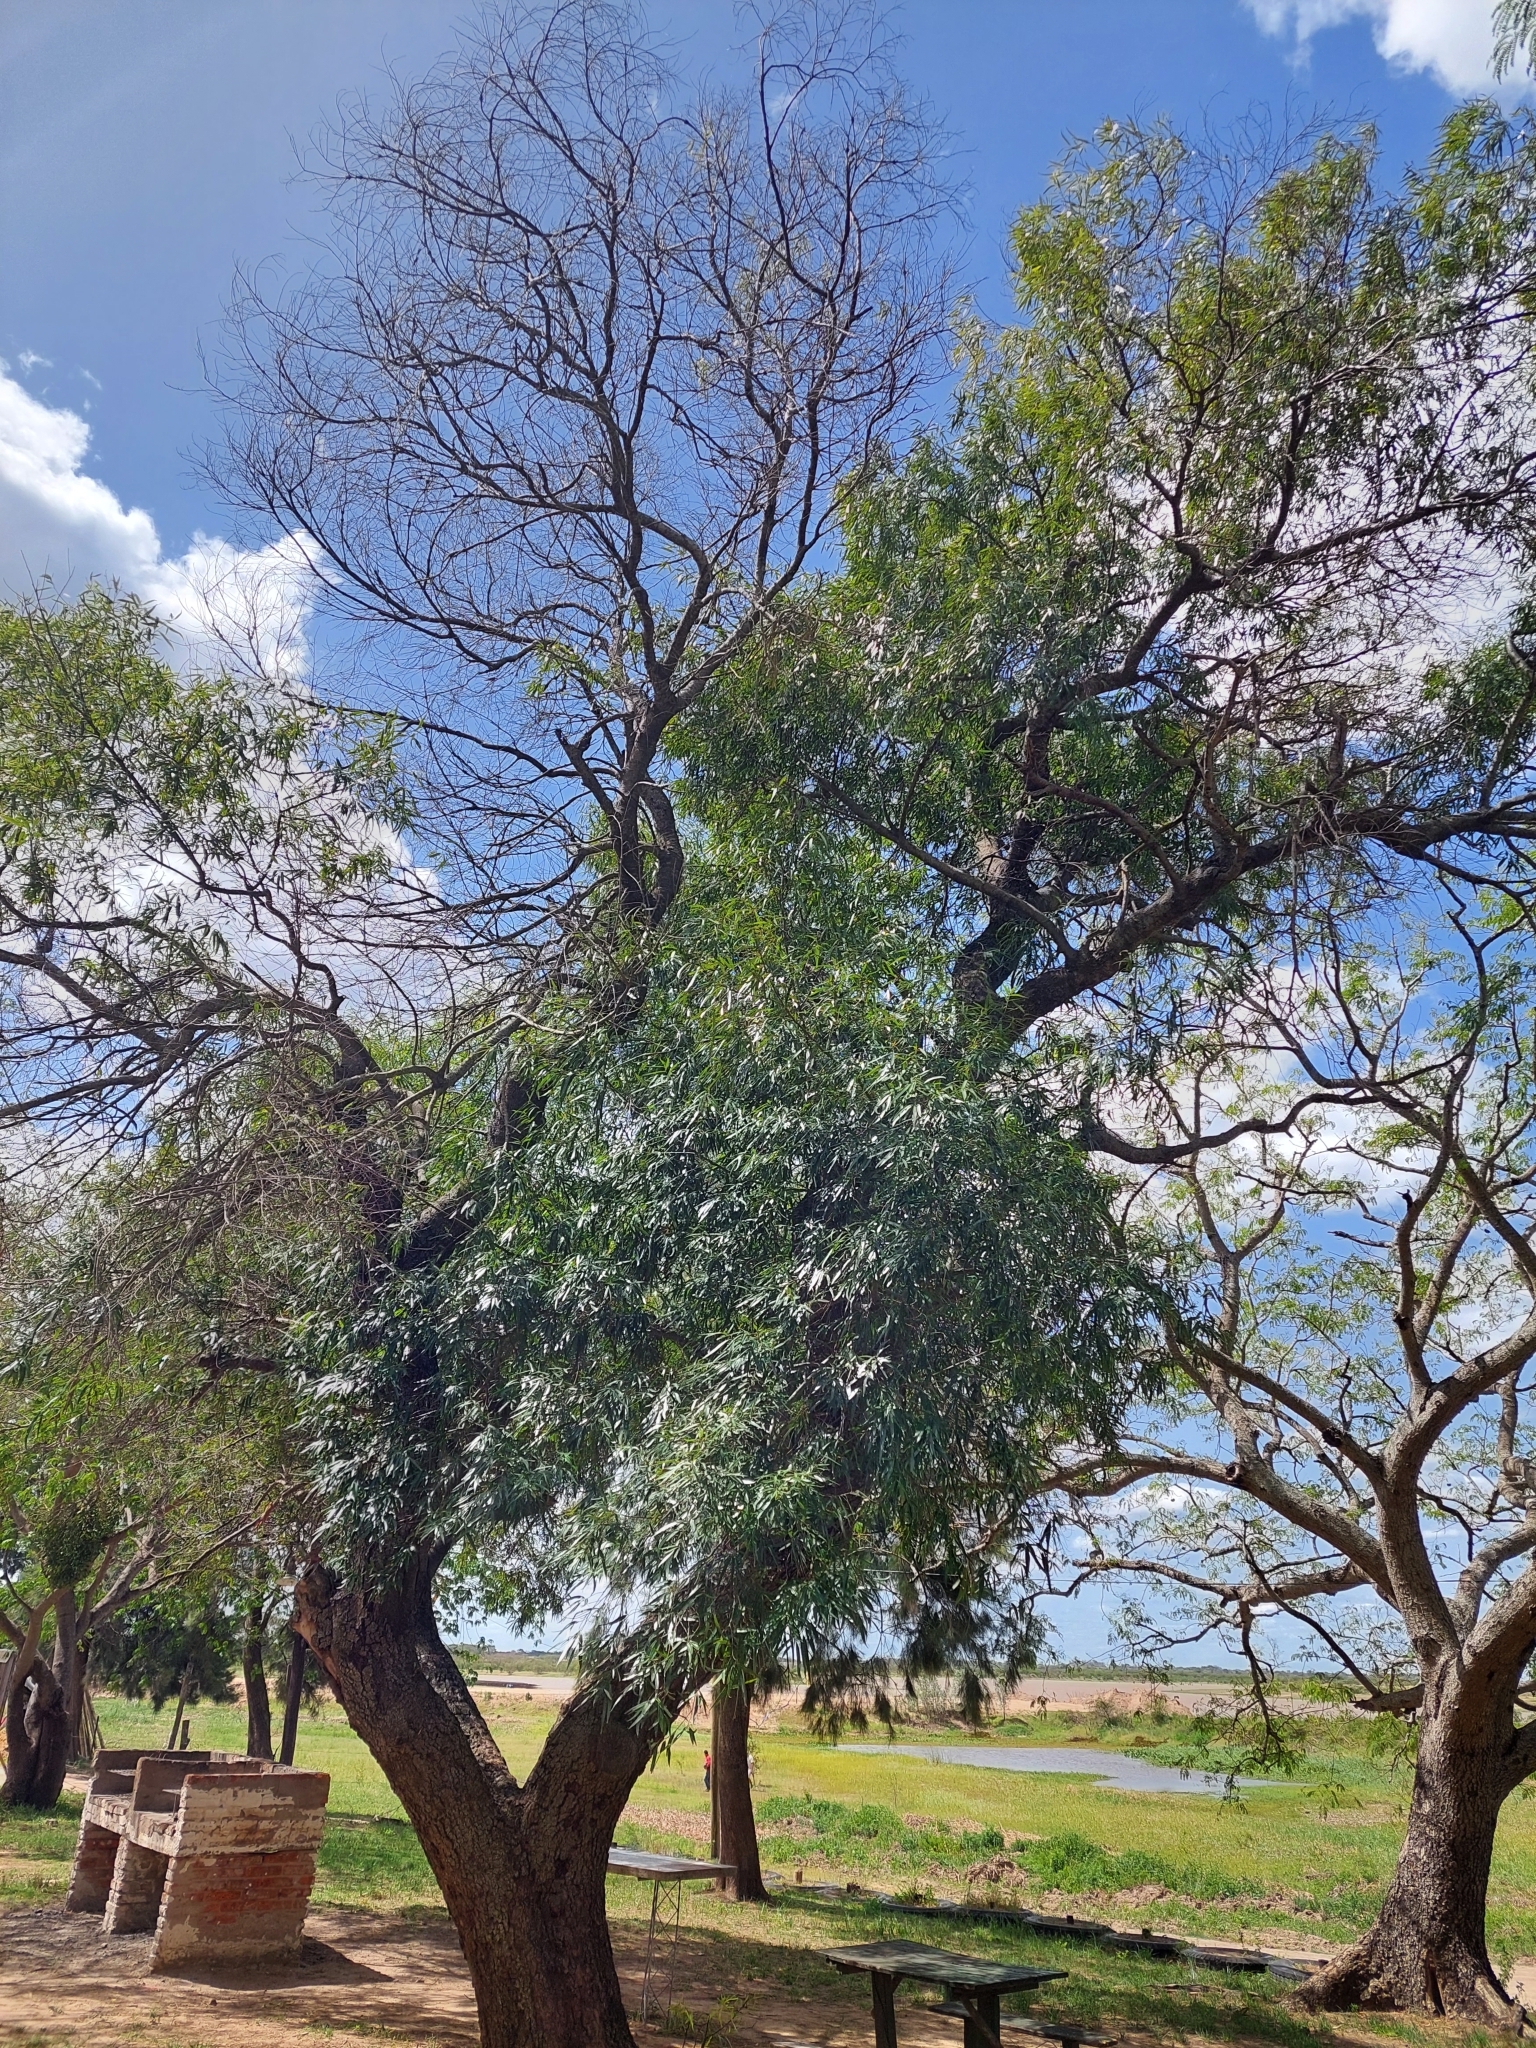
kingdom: Plantae
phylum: Tracheophyta
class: Magnoliopsida
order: Laurales
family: Lauraceae
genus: Nectandra
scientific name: Nectandra angustifolia
